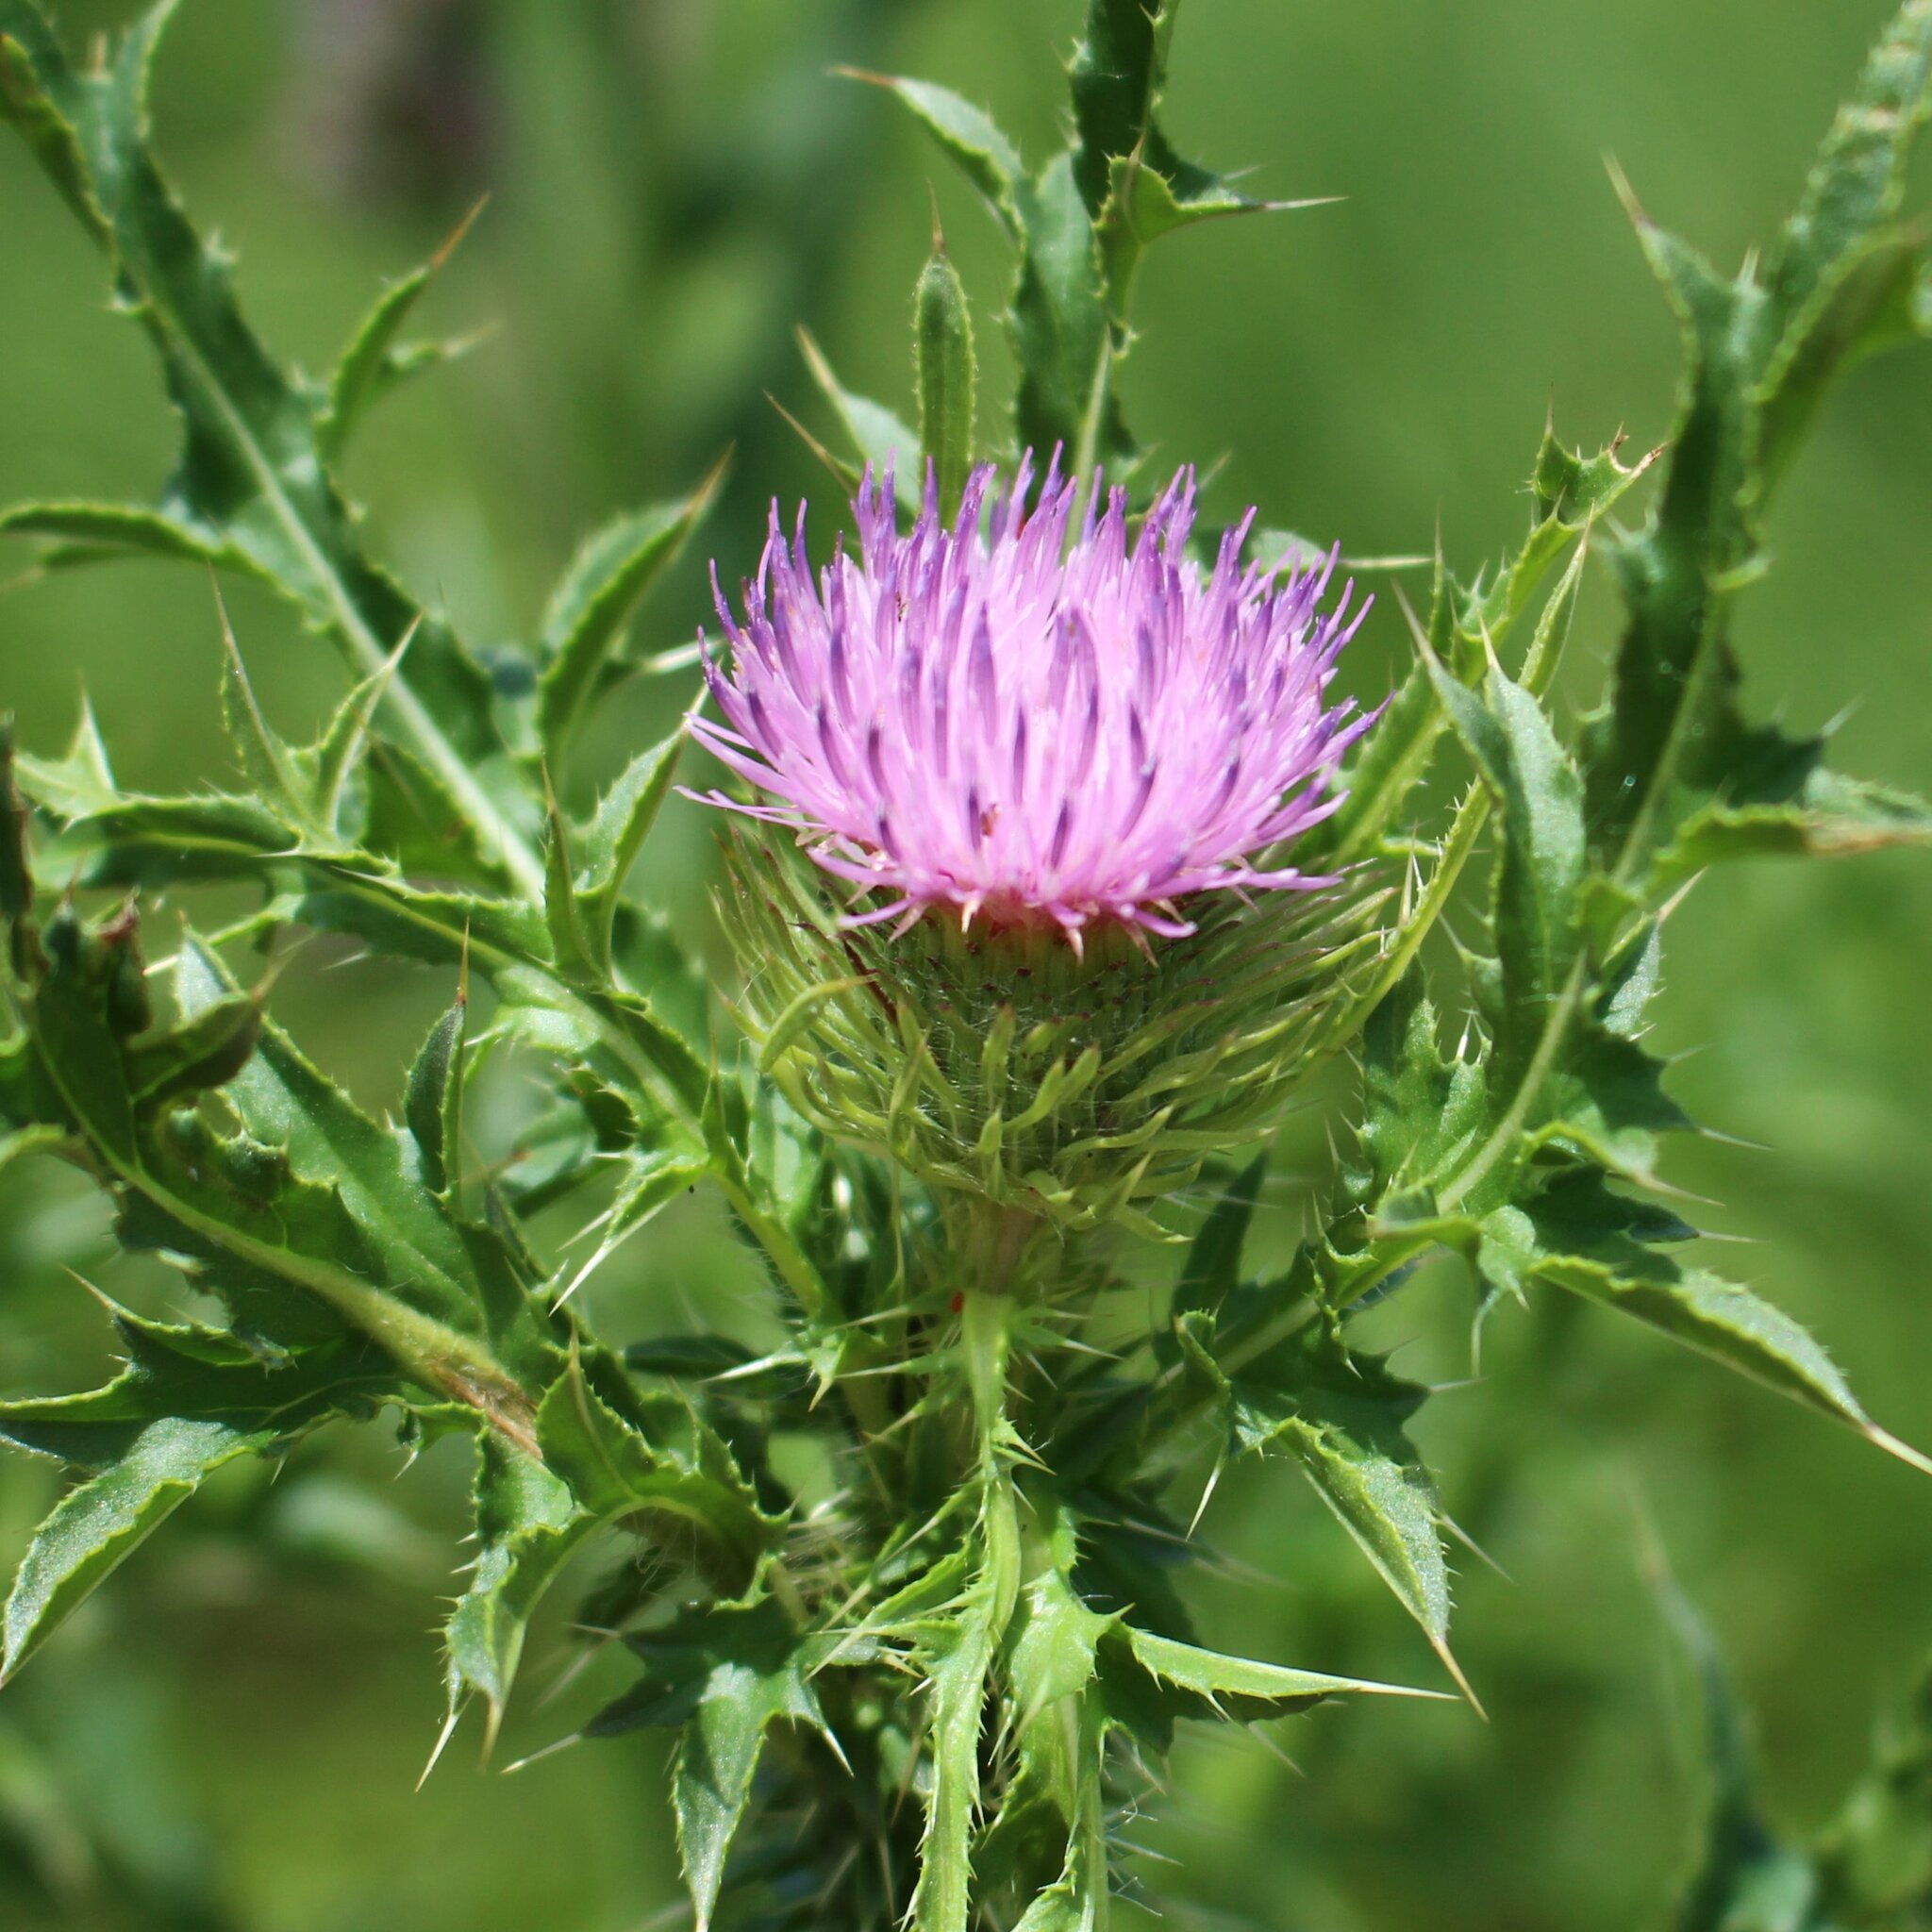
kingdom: Plantae
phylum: Tracheophyta
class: Magnoliopsida
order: Asterales
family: Asteraceae
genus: Carduus
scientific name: Carduus acanthoides
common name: Plumeless thistle
